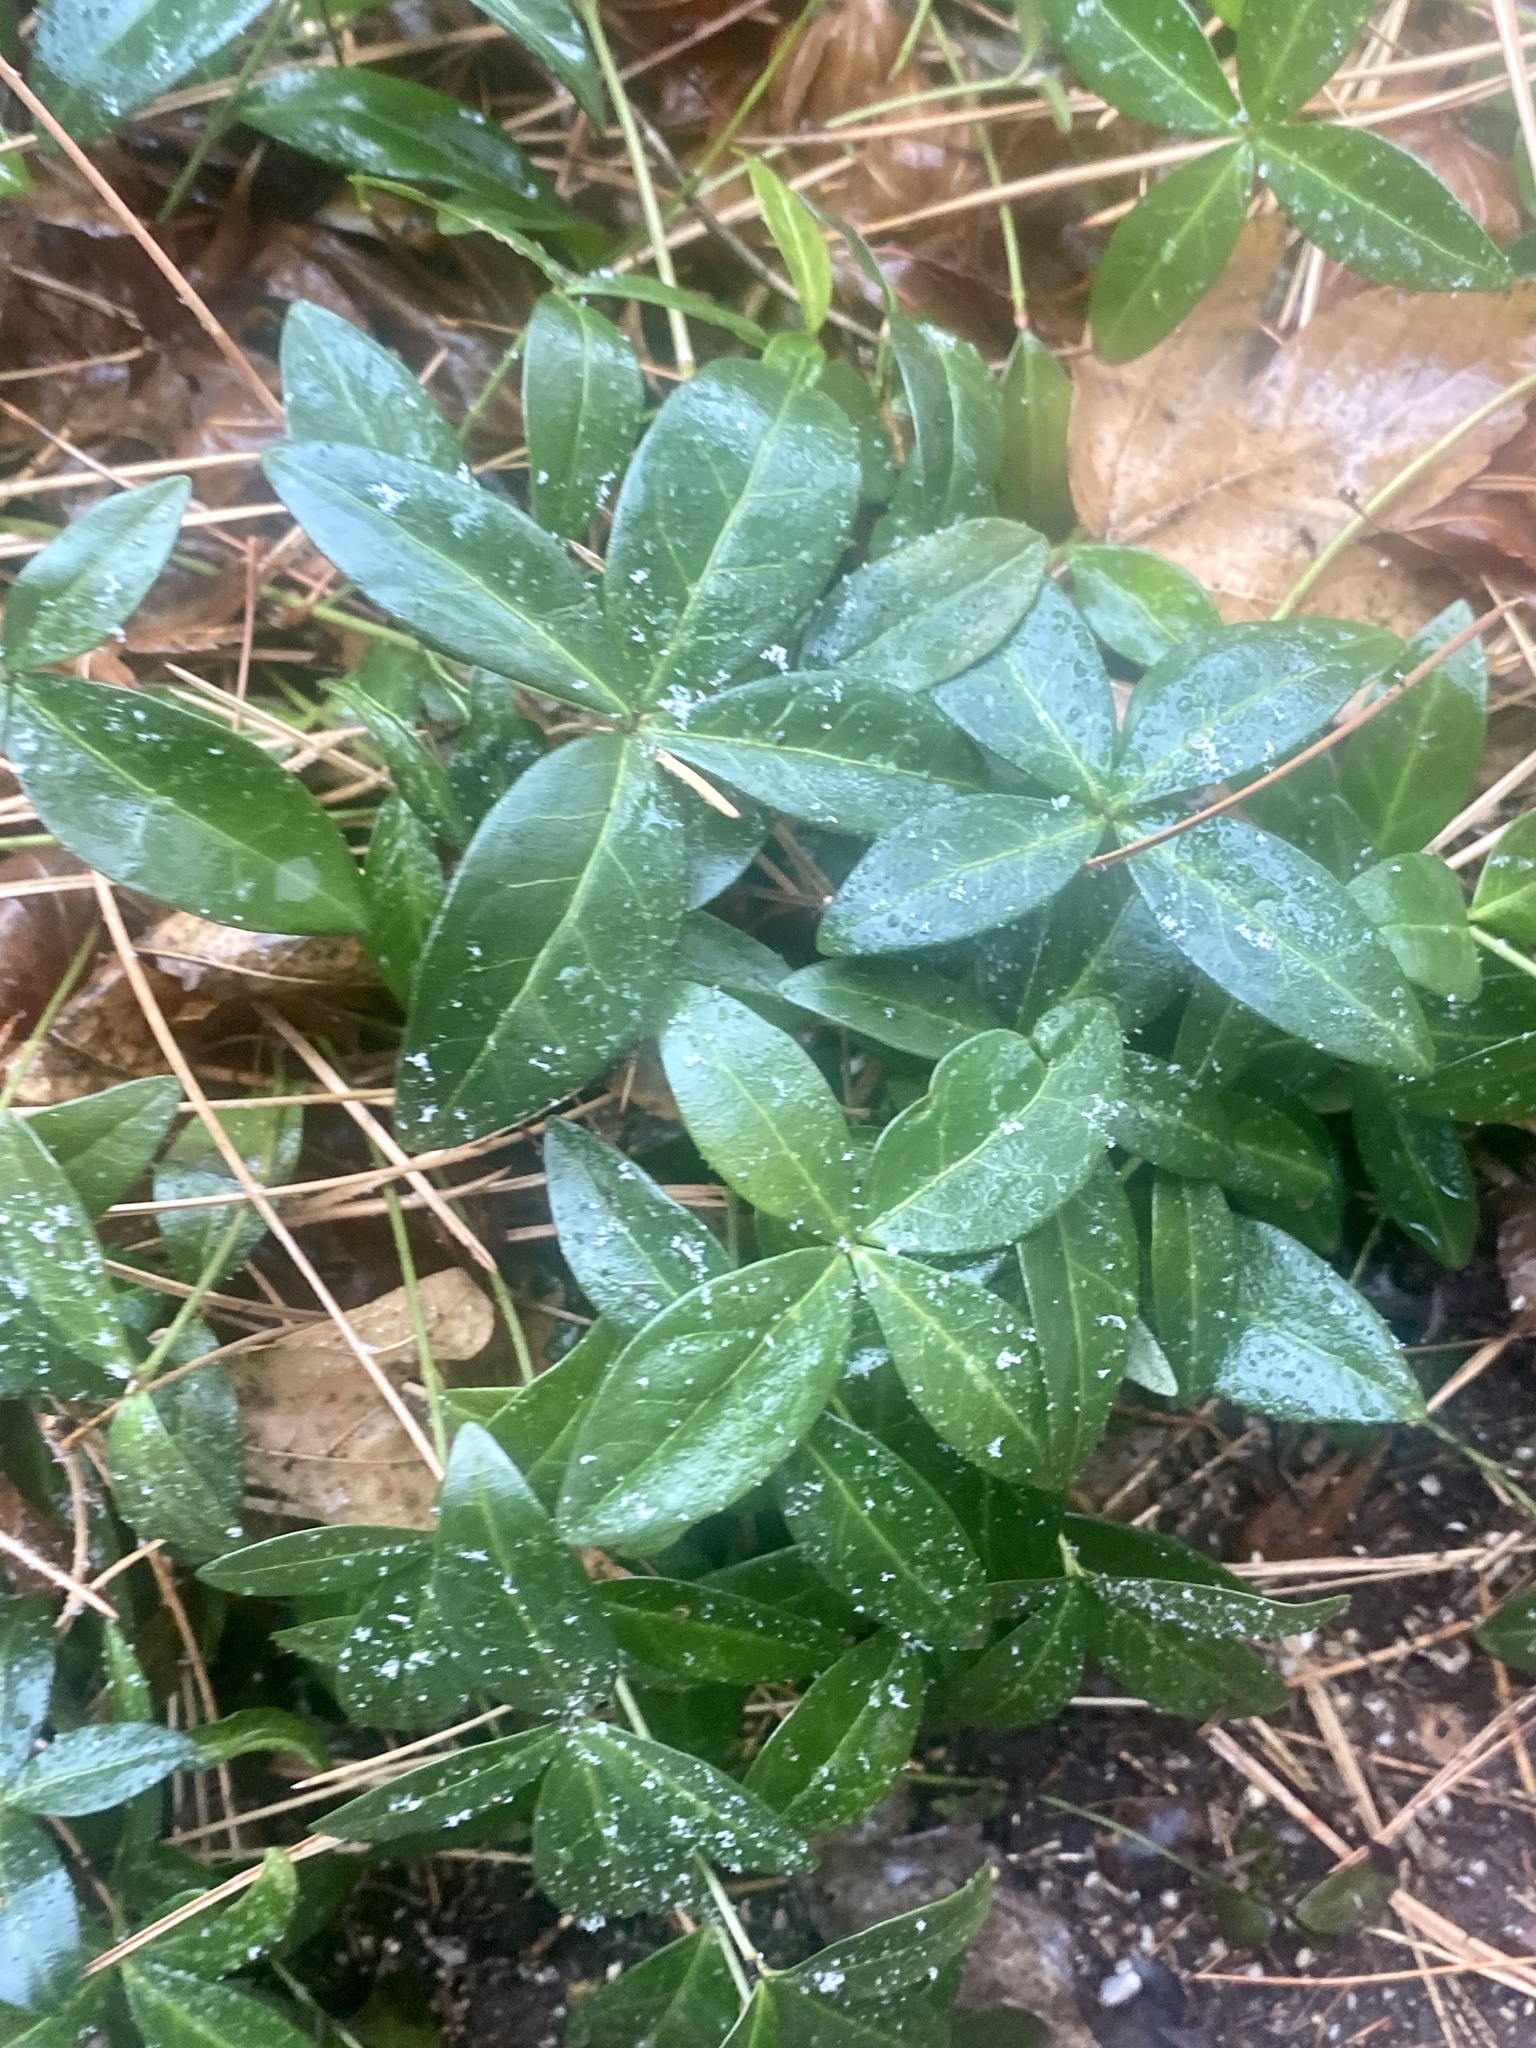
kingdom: Plantae
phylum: Tracheophyta
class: Magnoliopsida
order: Gentianales
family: Apocynaceae
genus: Vinca
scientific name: Vinca minor
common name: Lesser periwinkle
